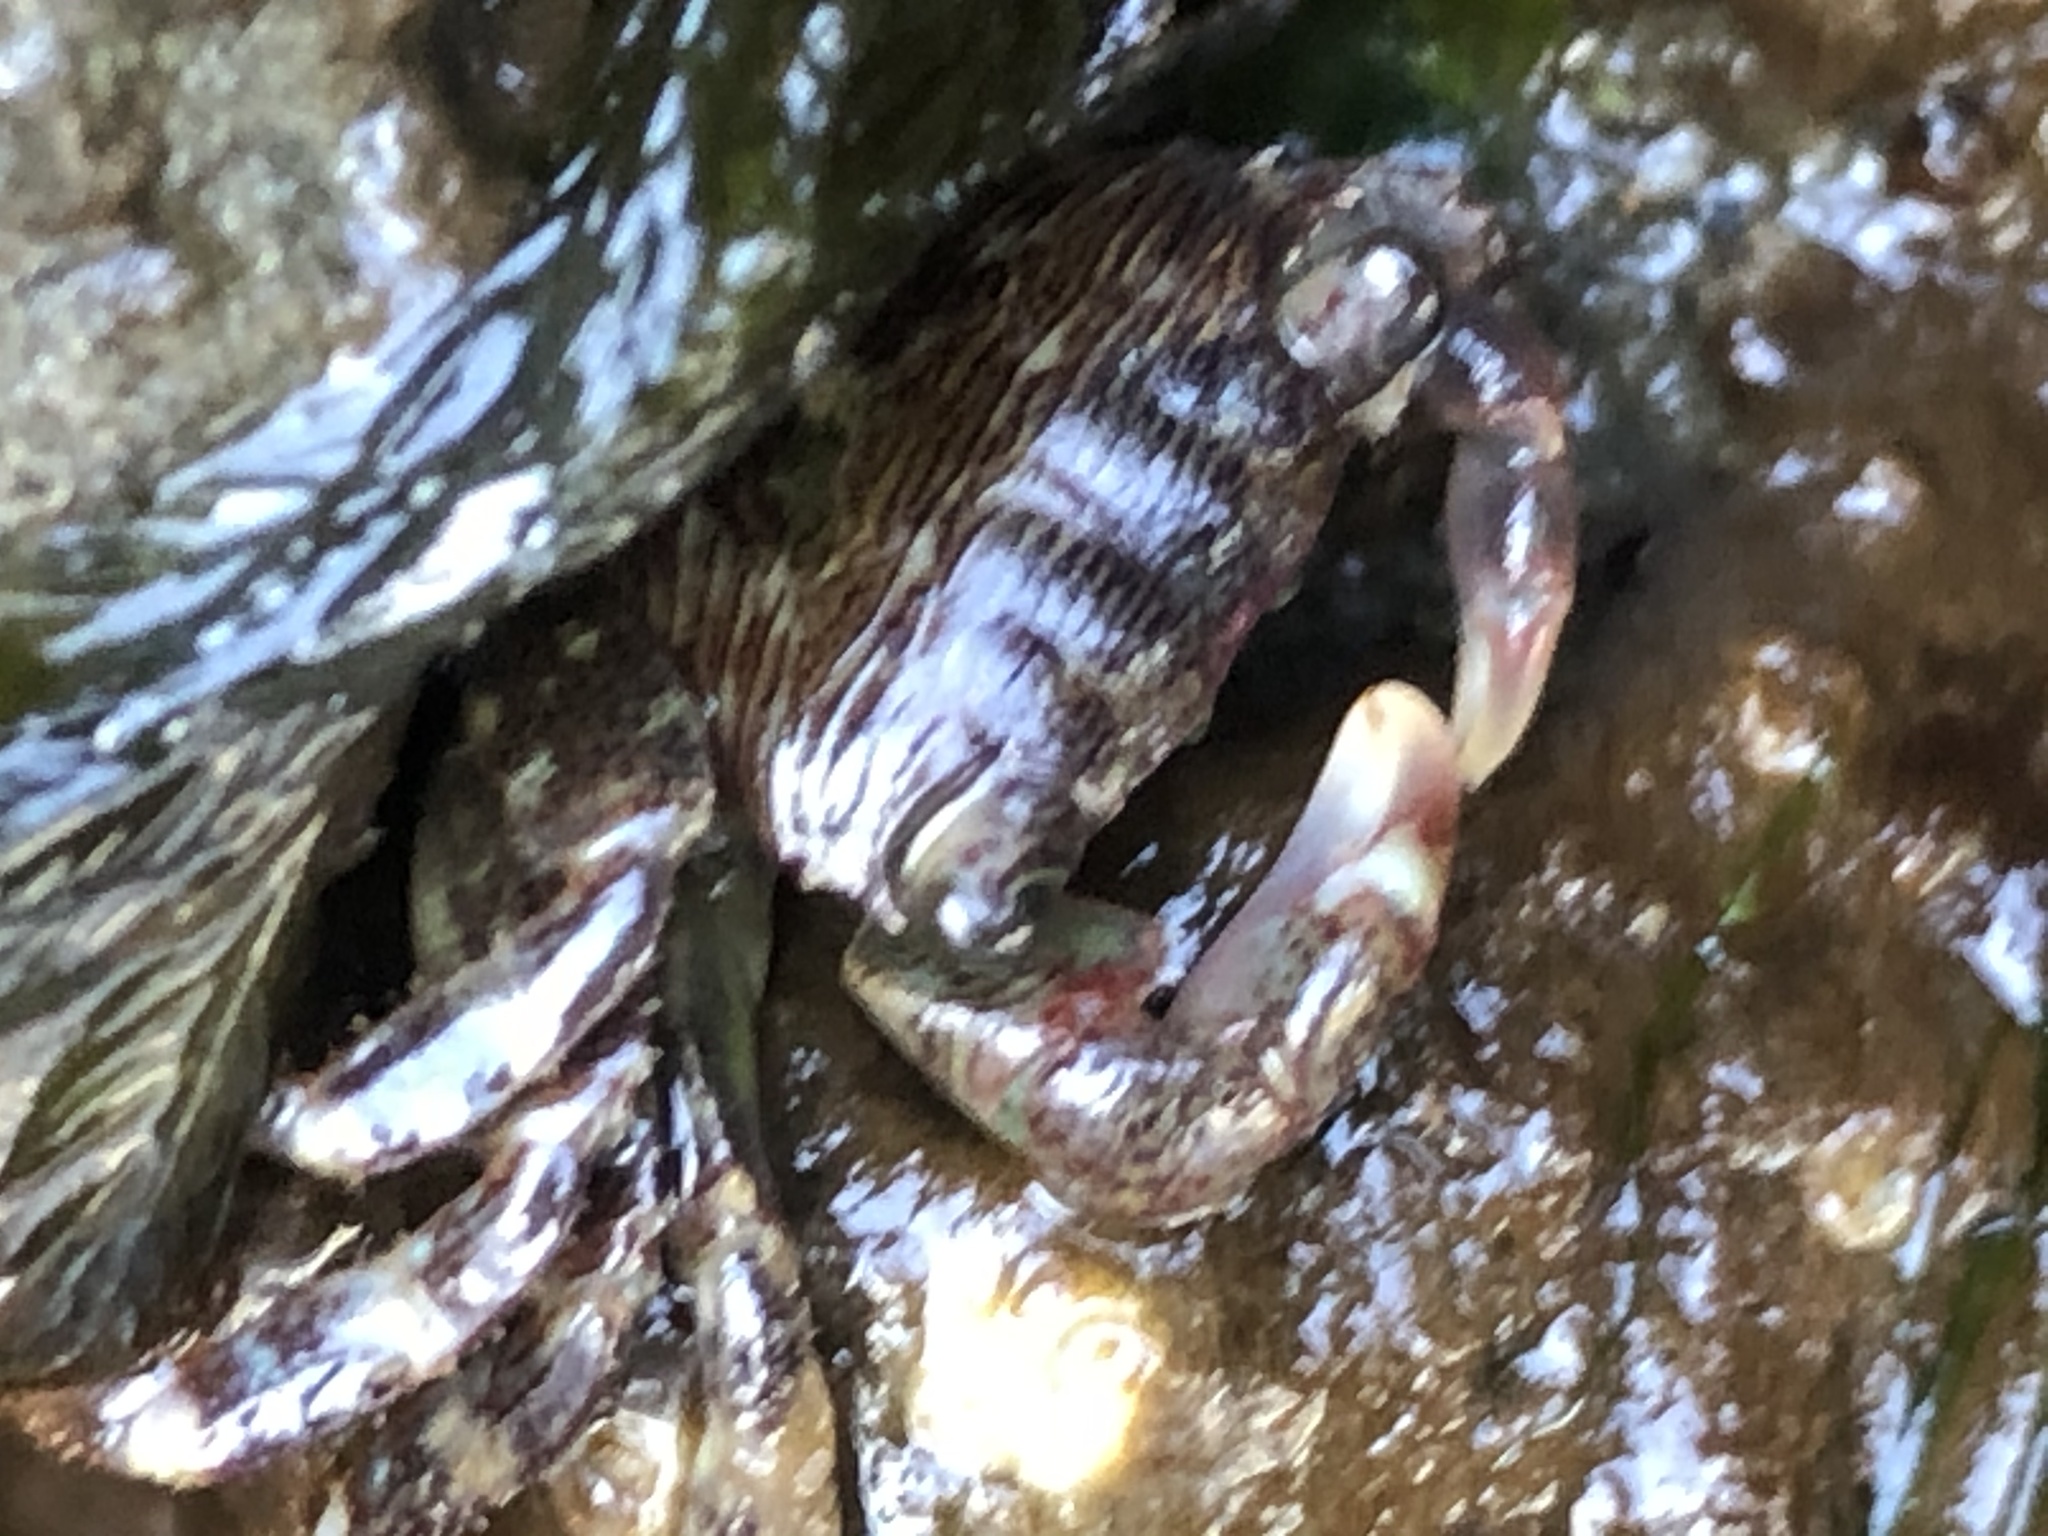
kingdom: Animalia
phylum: Arthropoda
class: Malacostraca
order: Decapoda
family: Grapsidae
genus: Pachygrapsus
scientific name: Pachygrapsus crassipes
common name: Striped shore crab
